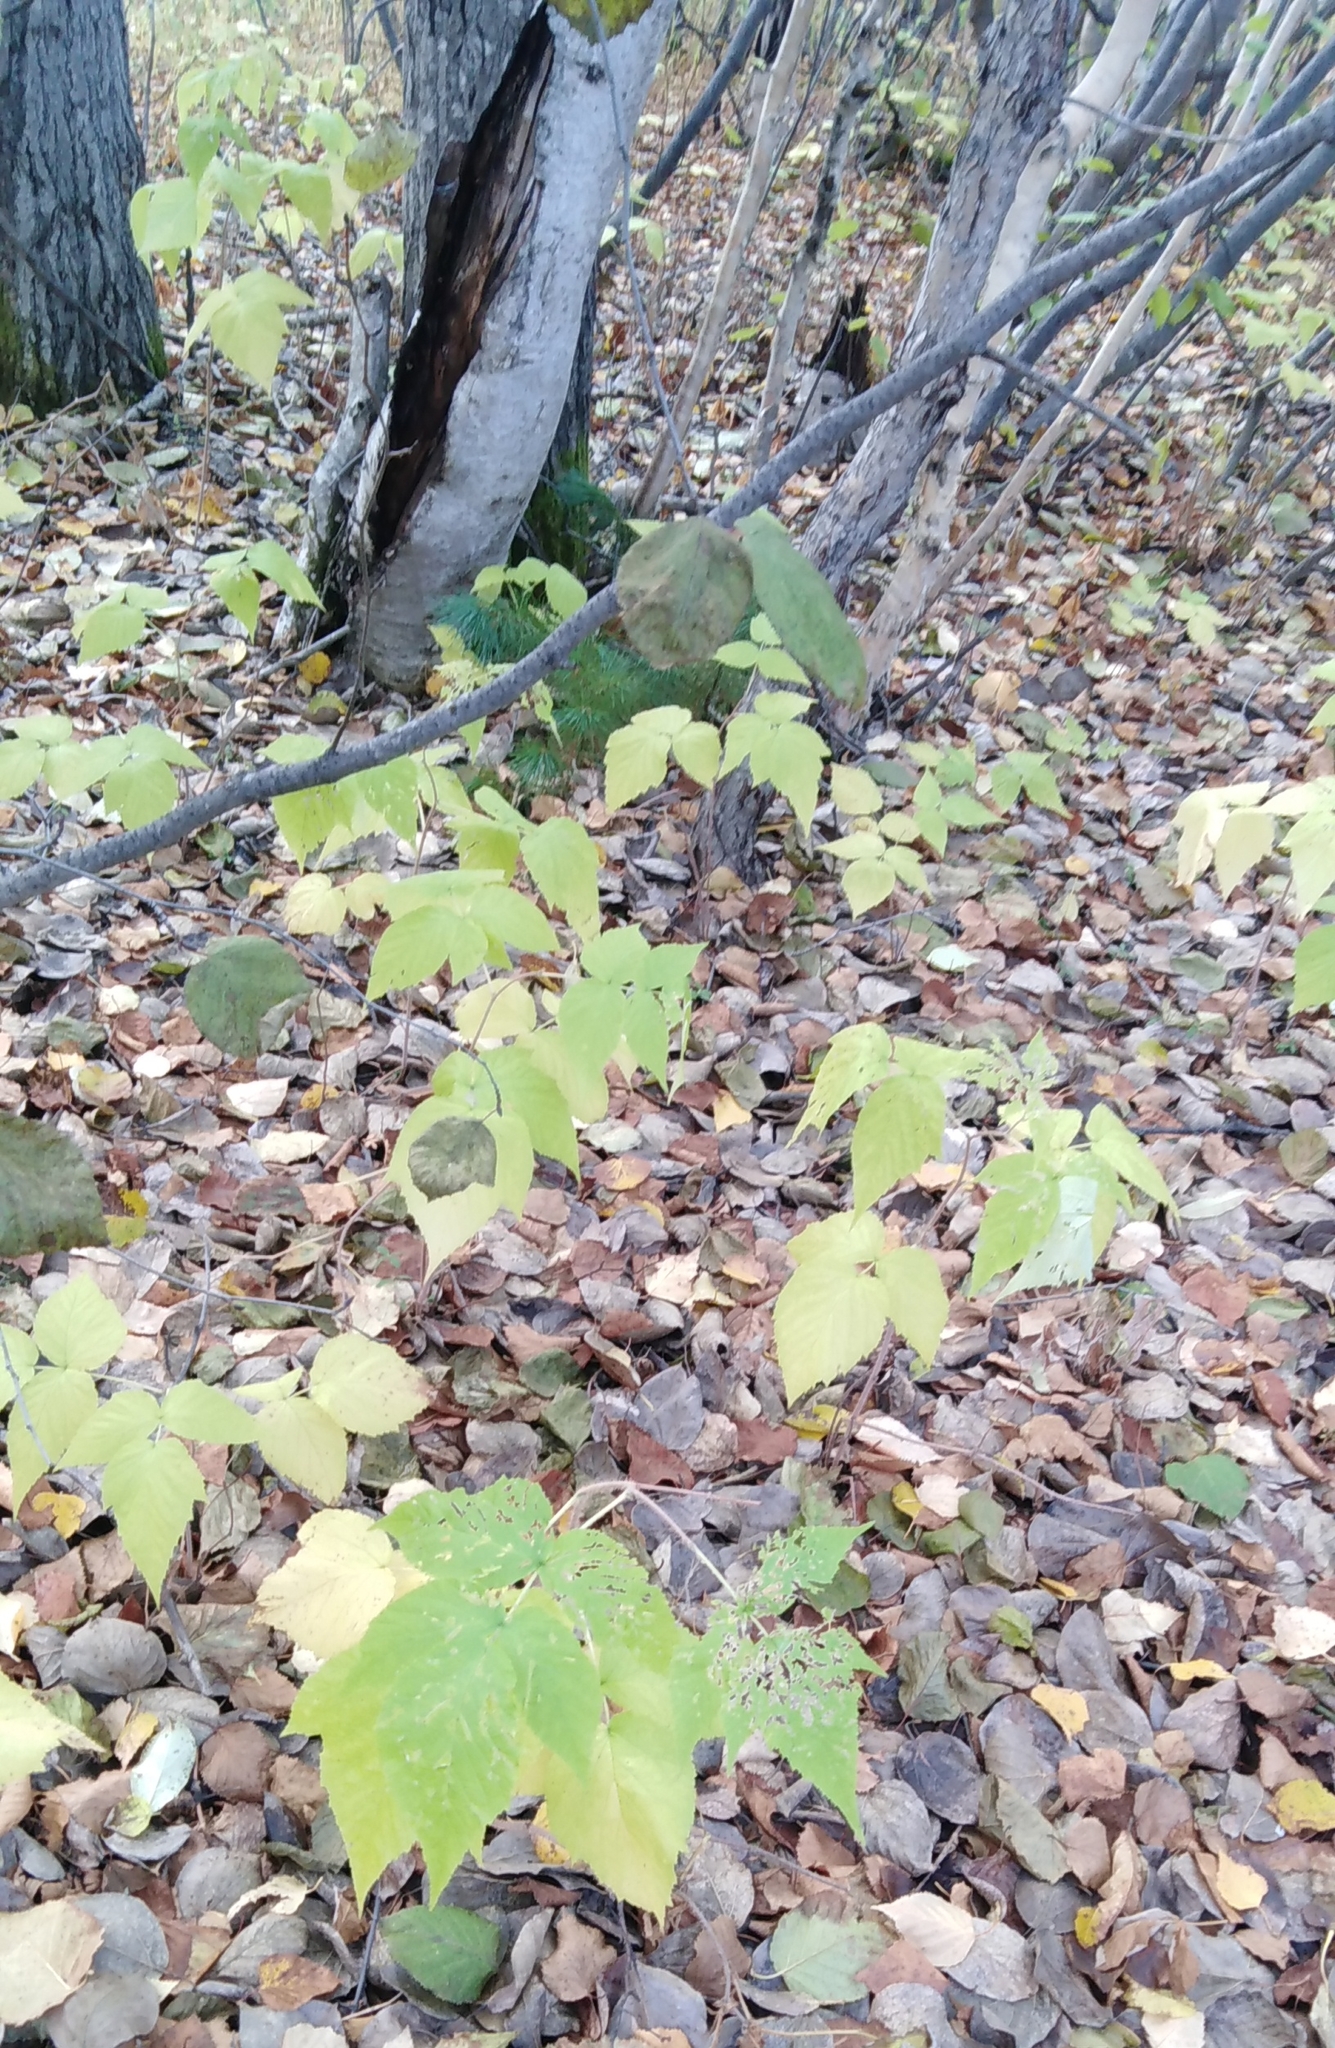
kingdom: Plantae
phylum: Tracheophyta
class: Magnoliopsida
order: Rosales
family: Rosaceae
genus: Rubus
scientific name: Rubus sachalinensis
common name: Red raspberry
